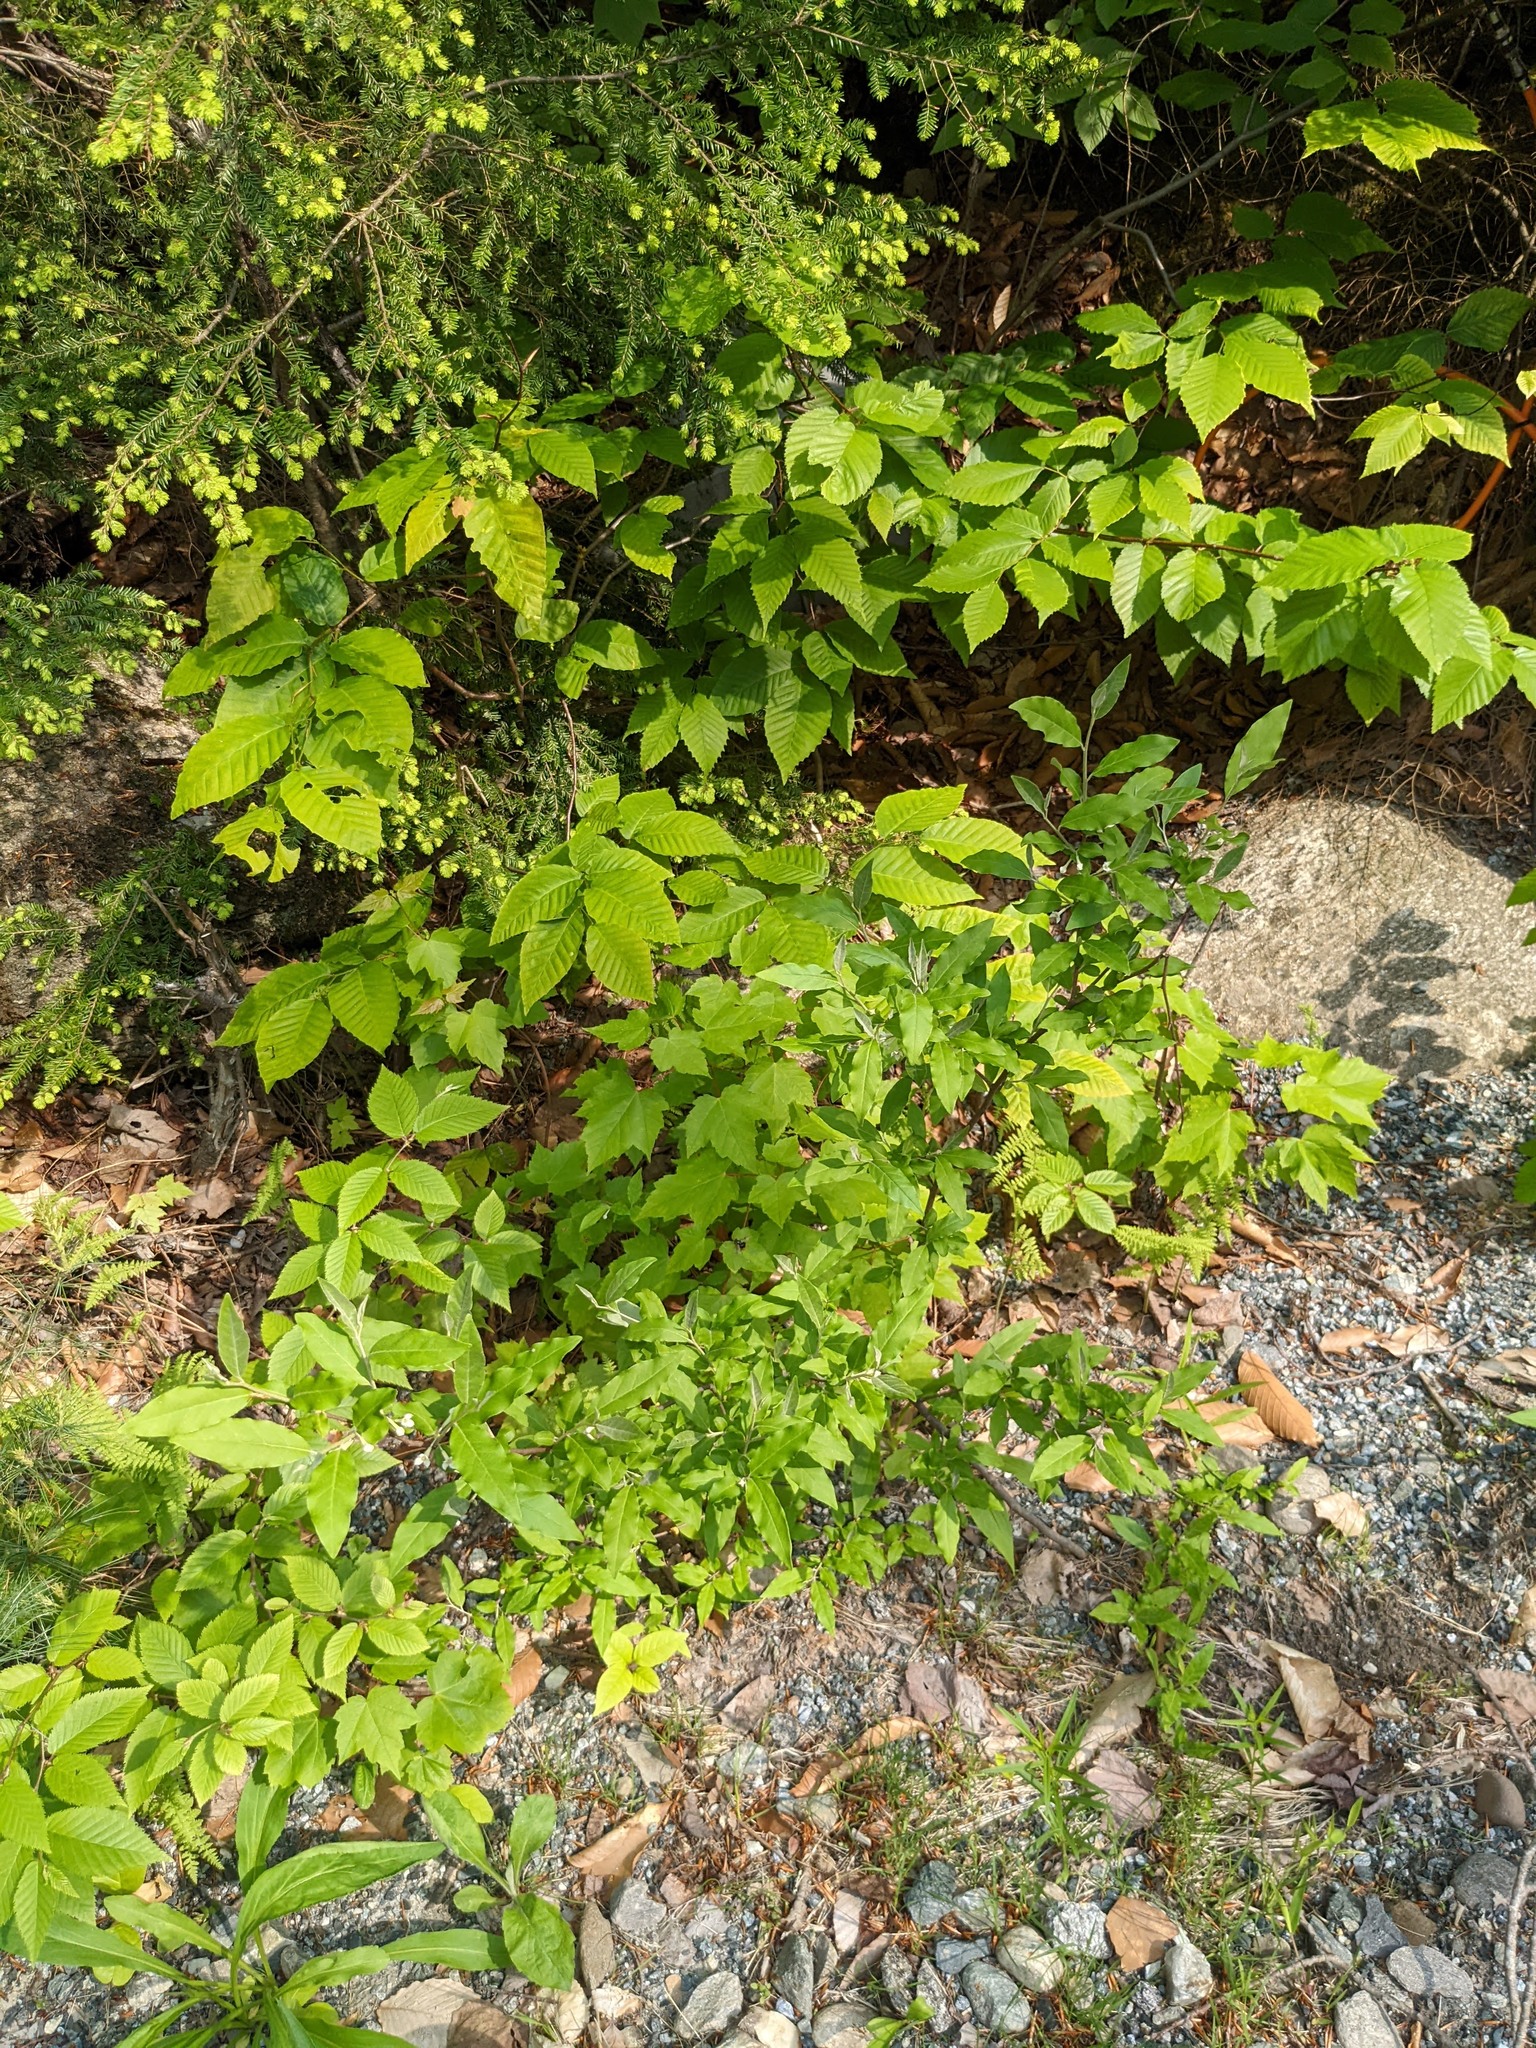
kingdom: Plantae
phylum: Tracheophyta
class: Magnoliopsida
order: Rosales
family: Elaeagnaceae
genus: Elaeagnus
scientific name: Elaeagnus umbellata
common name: Autumn olive
